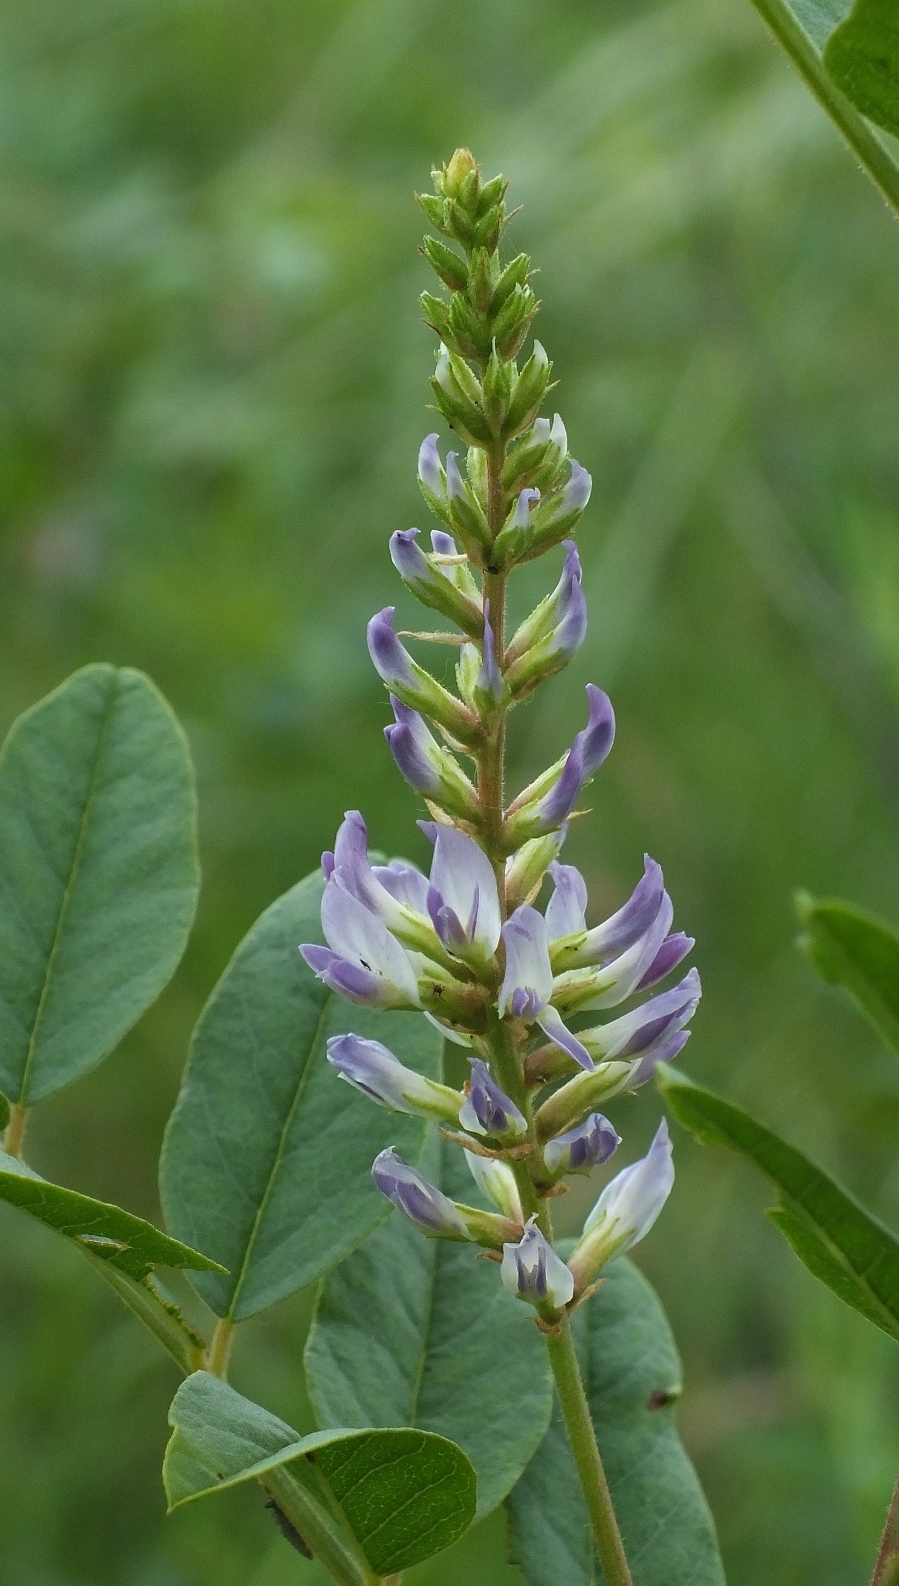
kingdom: Plantae
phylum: Tracheophyta
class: Magnoliopsida
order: Fabales
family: Fabaceae
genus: Glycyrrhiza
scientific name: Glycyrrhiza glabra
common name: Liquorice
